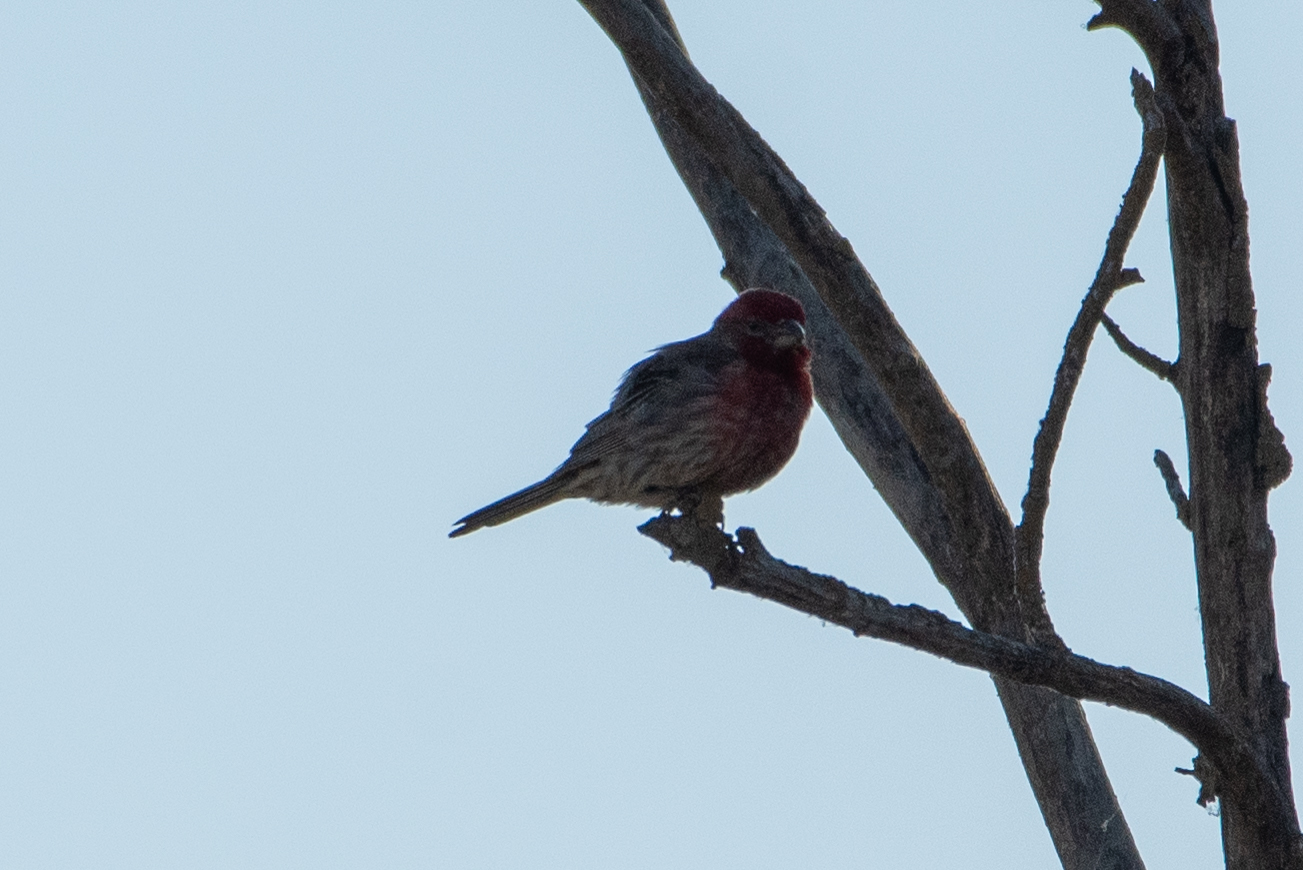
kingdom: Animalia
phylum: Chordata
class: Aves
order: Passeriformes
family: Fringillidae
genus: Haemorhous
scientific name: Haemorhous mexicanus
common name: House finch
